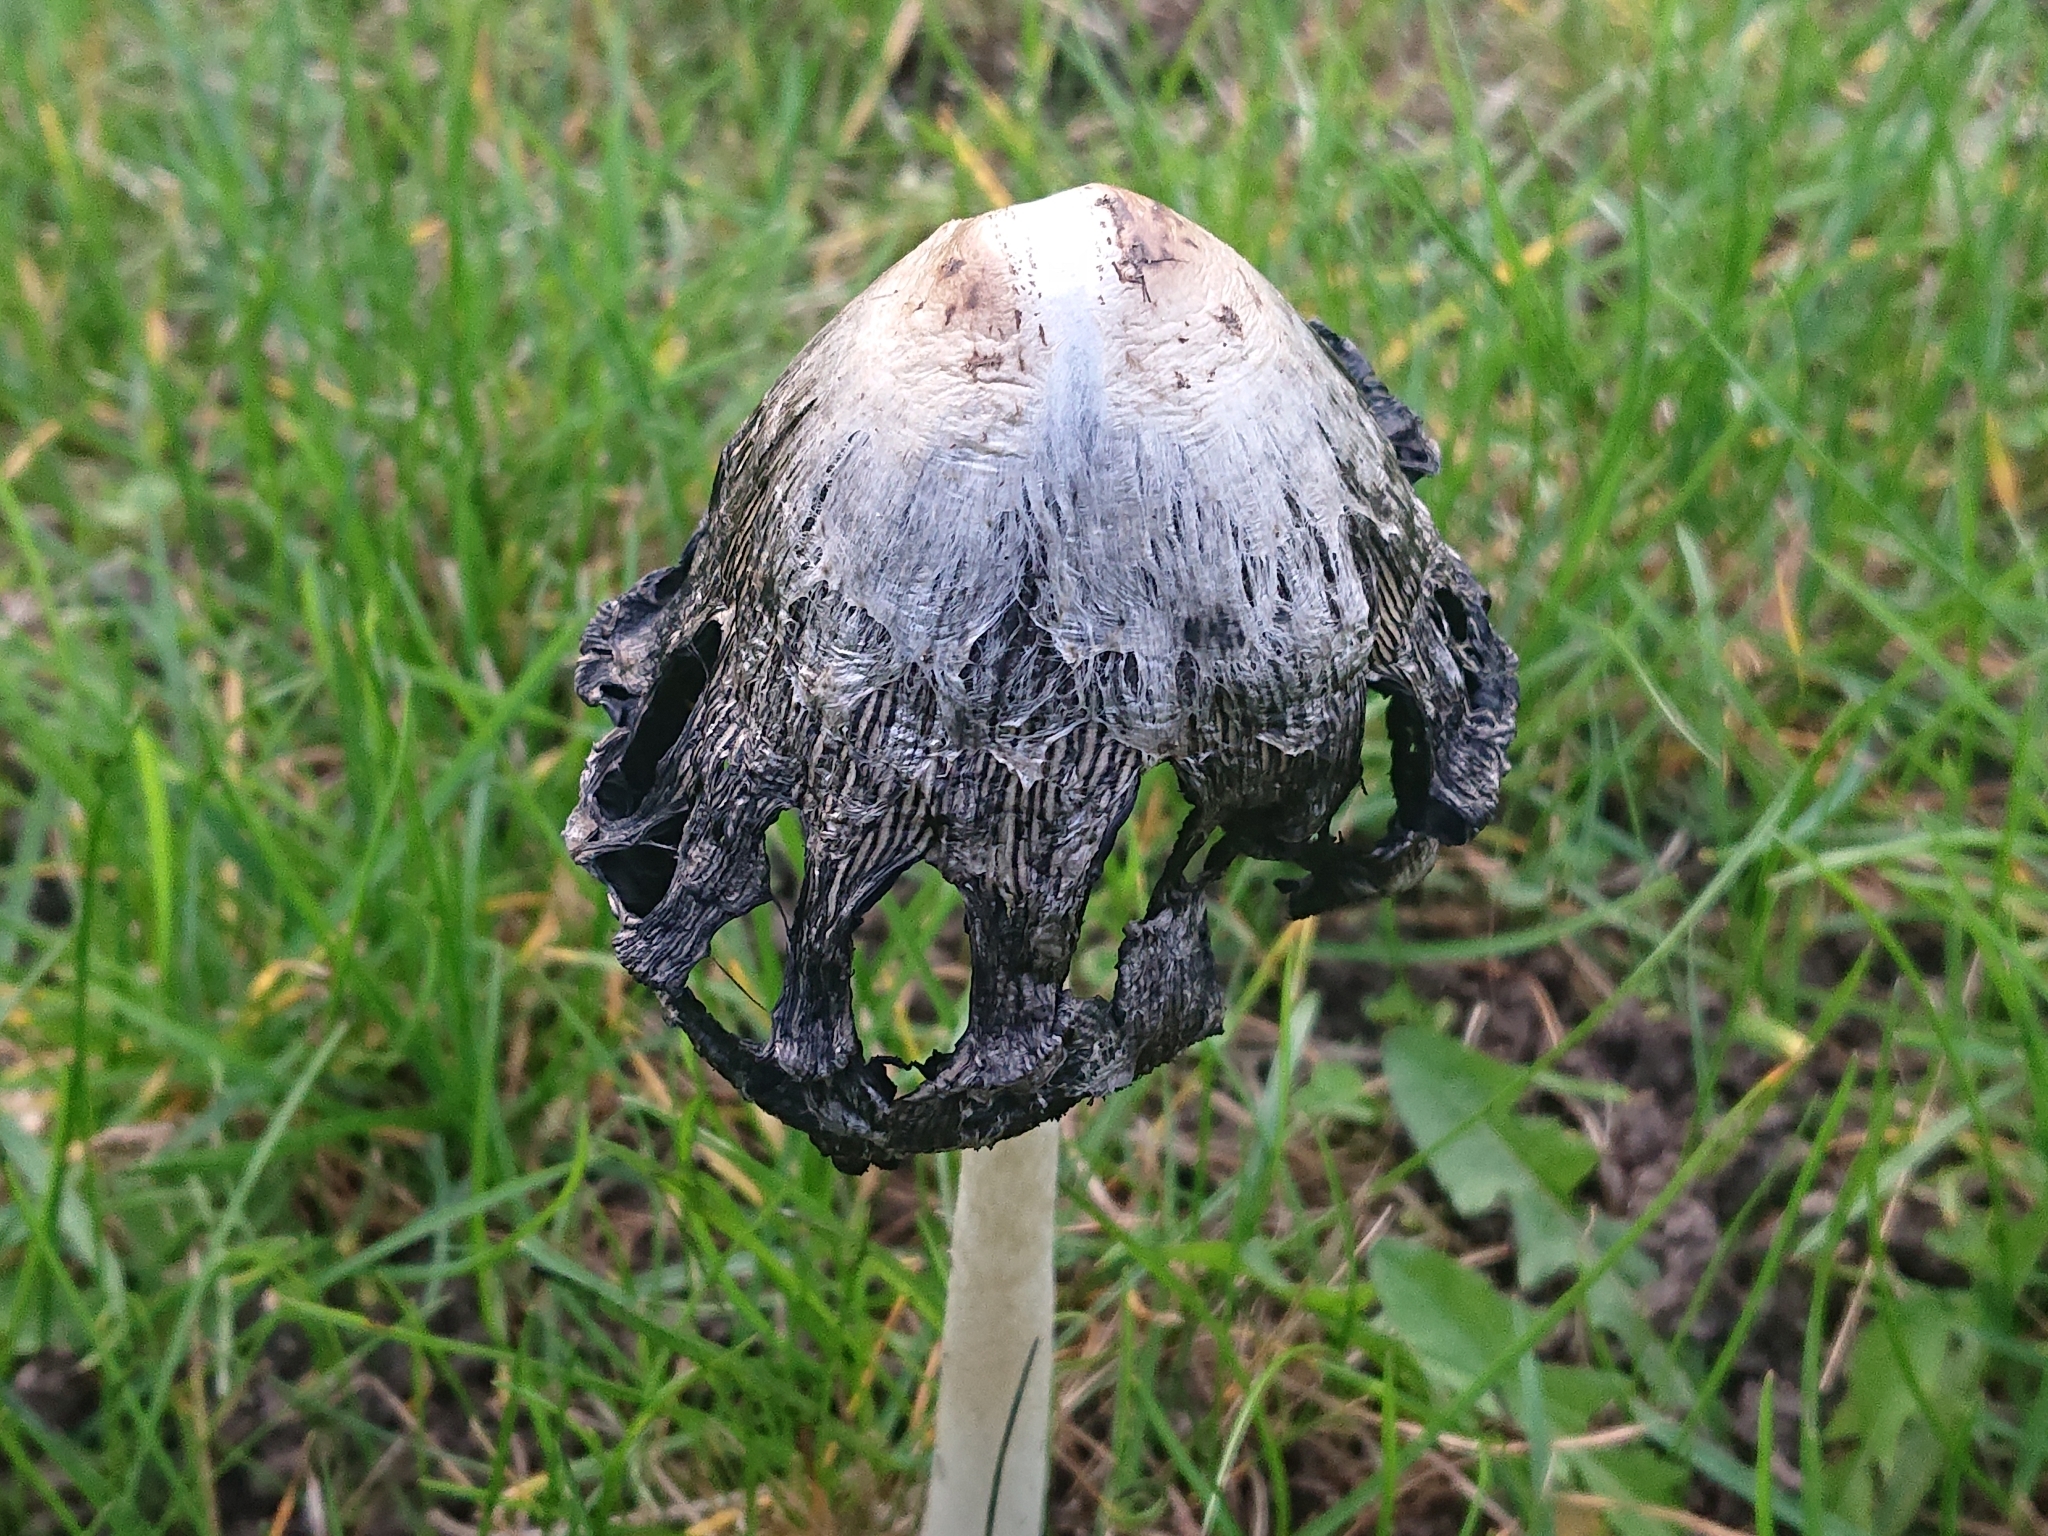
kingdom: Fungi
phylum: Basidiomycota
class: Agaricomycetes
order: Agaricales
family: Agaricaceae
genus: Coprinus
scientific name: Coprinus comatus
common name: Lawyer's wig
